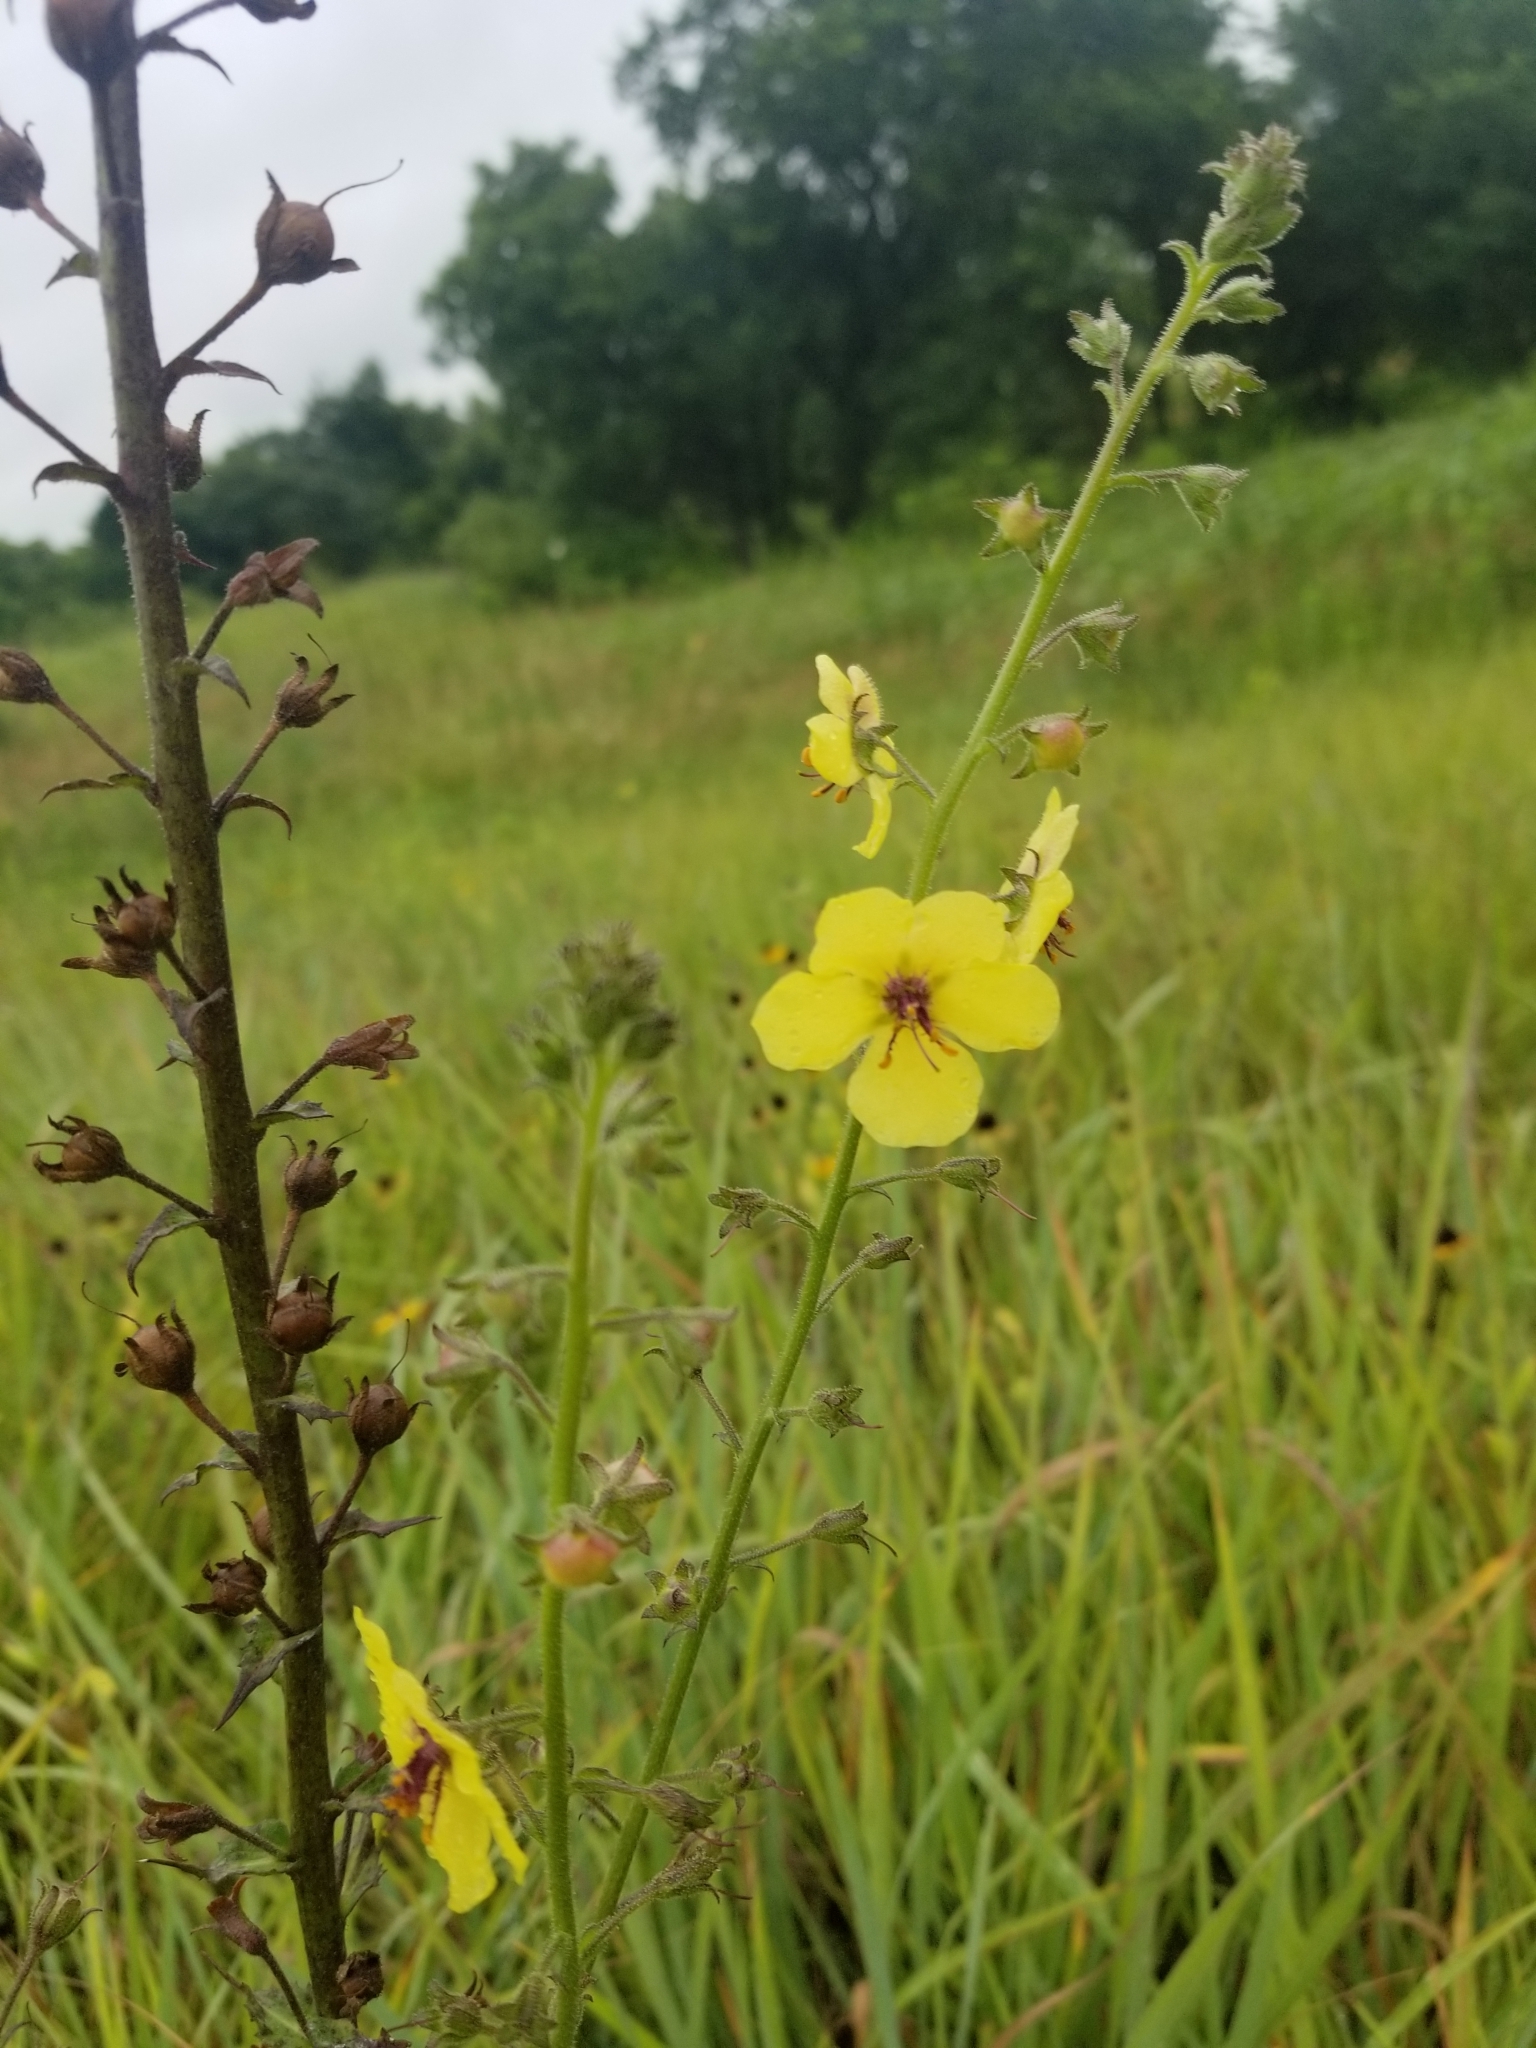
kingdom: Plantae
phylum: Tracheophyta
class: Magnoliopsida
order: Lamiales
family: Scrophulariaceae
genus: Verbascum
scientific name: Verbascum blattaria
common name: Moth mullein
